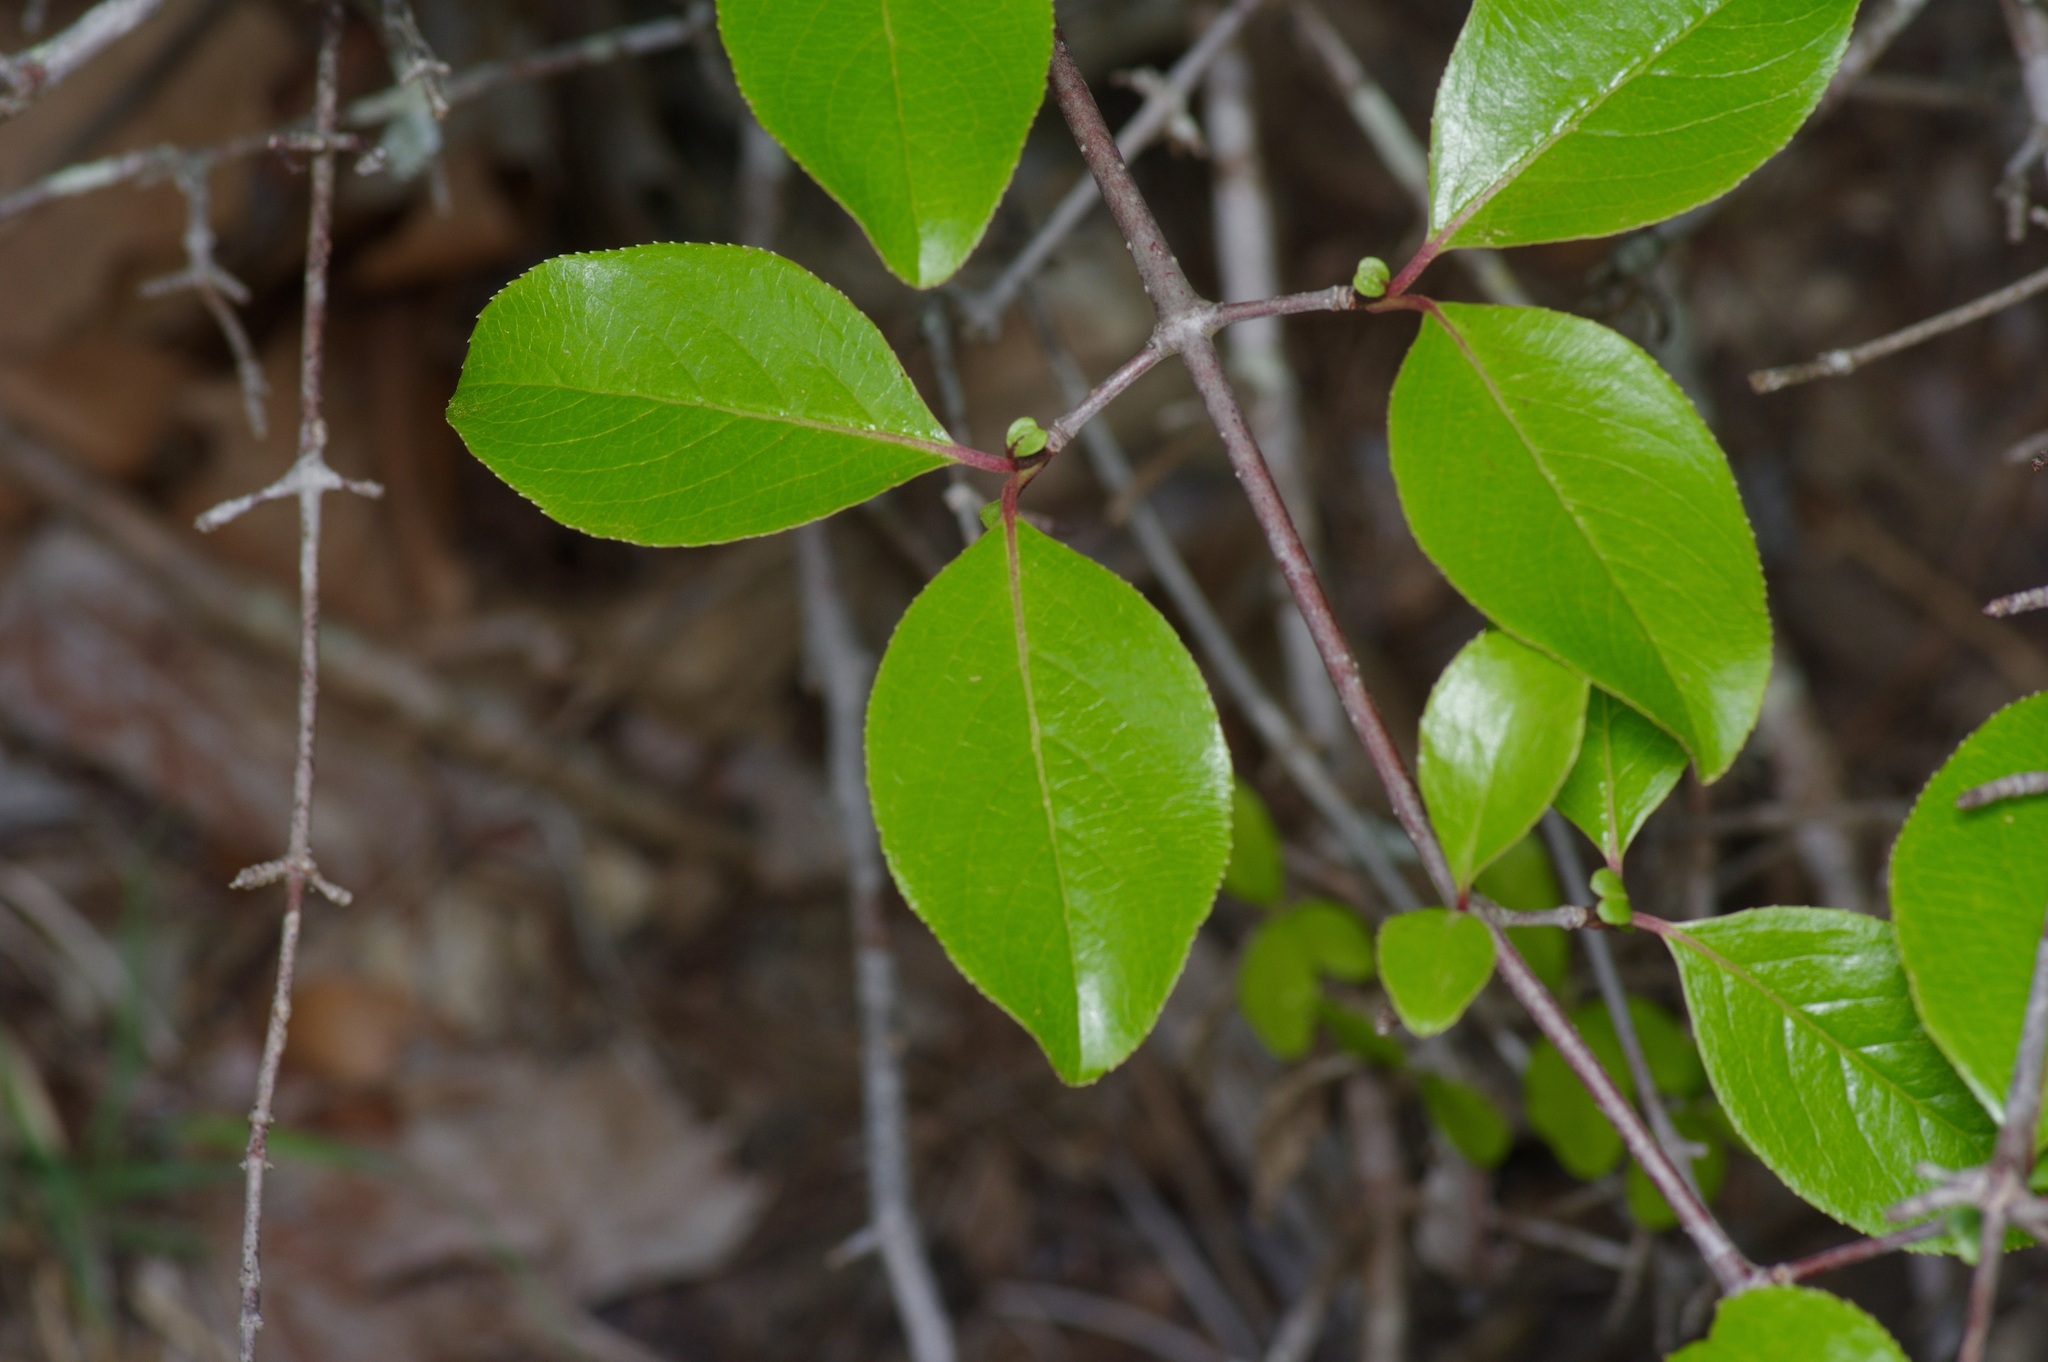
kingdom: Plantae
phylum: Tracheophyta
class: Magnoliopsida
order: Dipsacales
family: Viburnaceae
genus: Viburnum
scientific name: Viburnum rufidulum
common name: Blue haw
